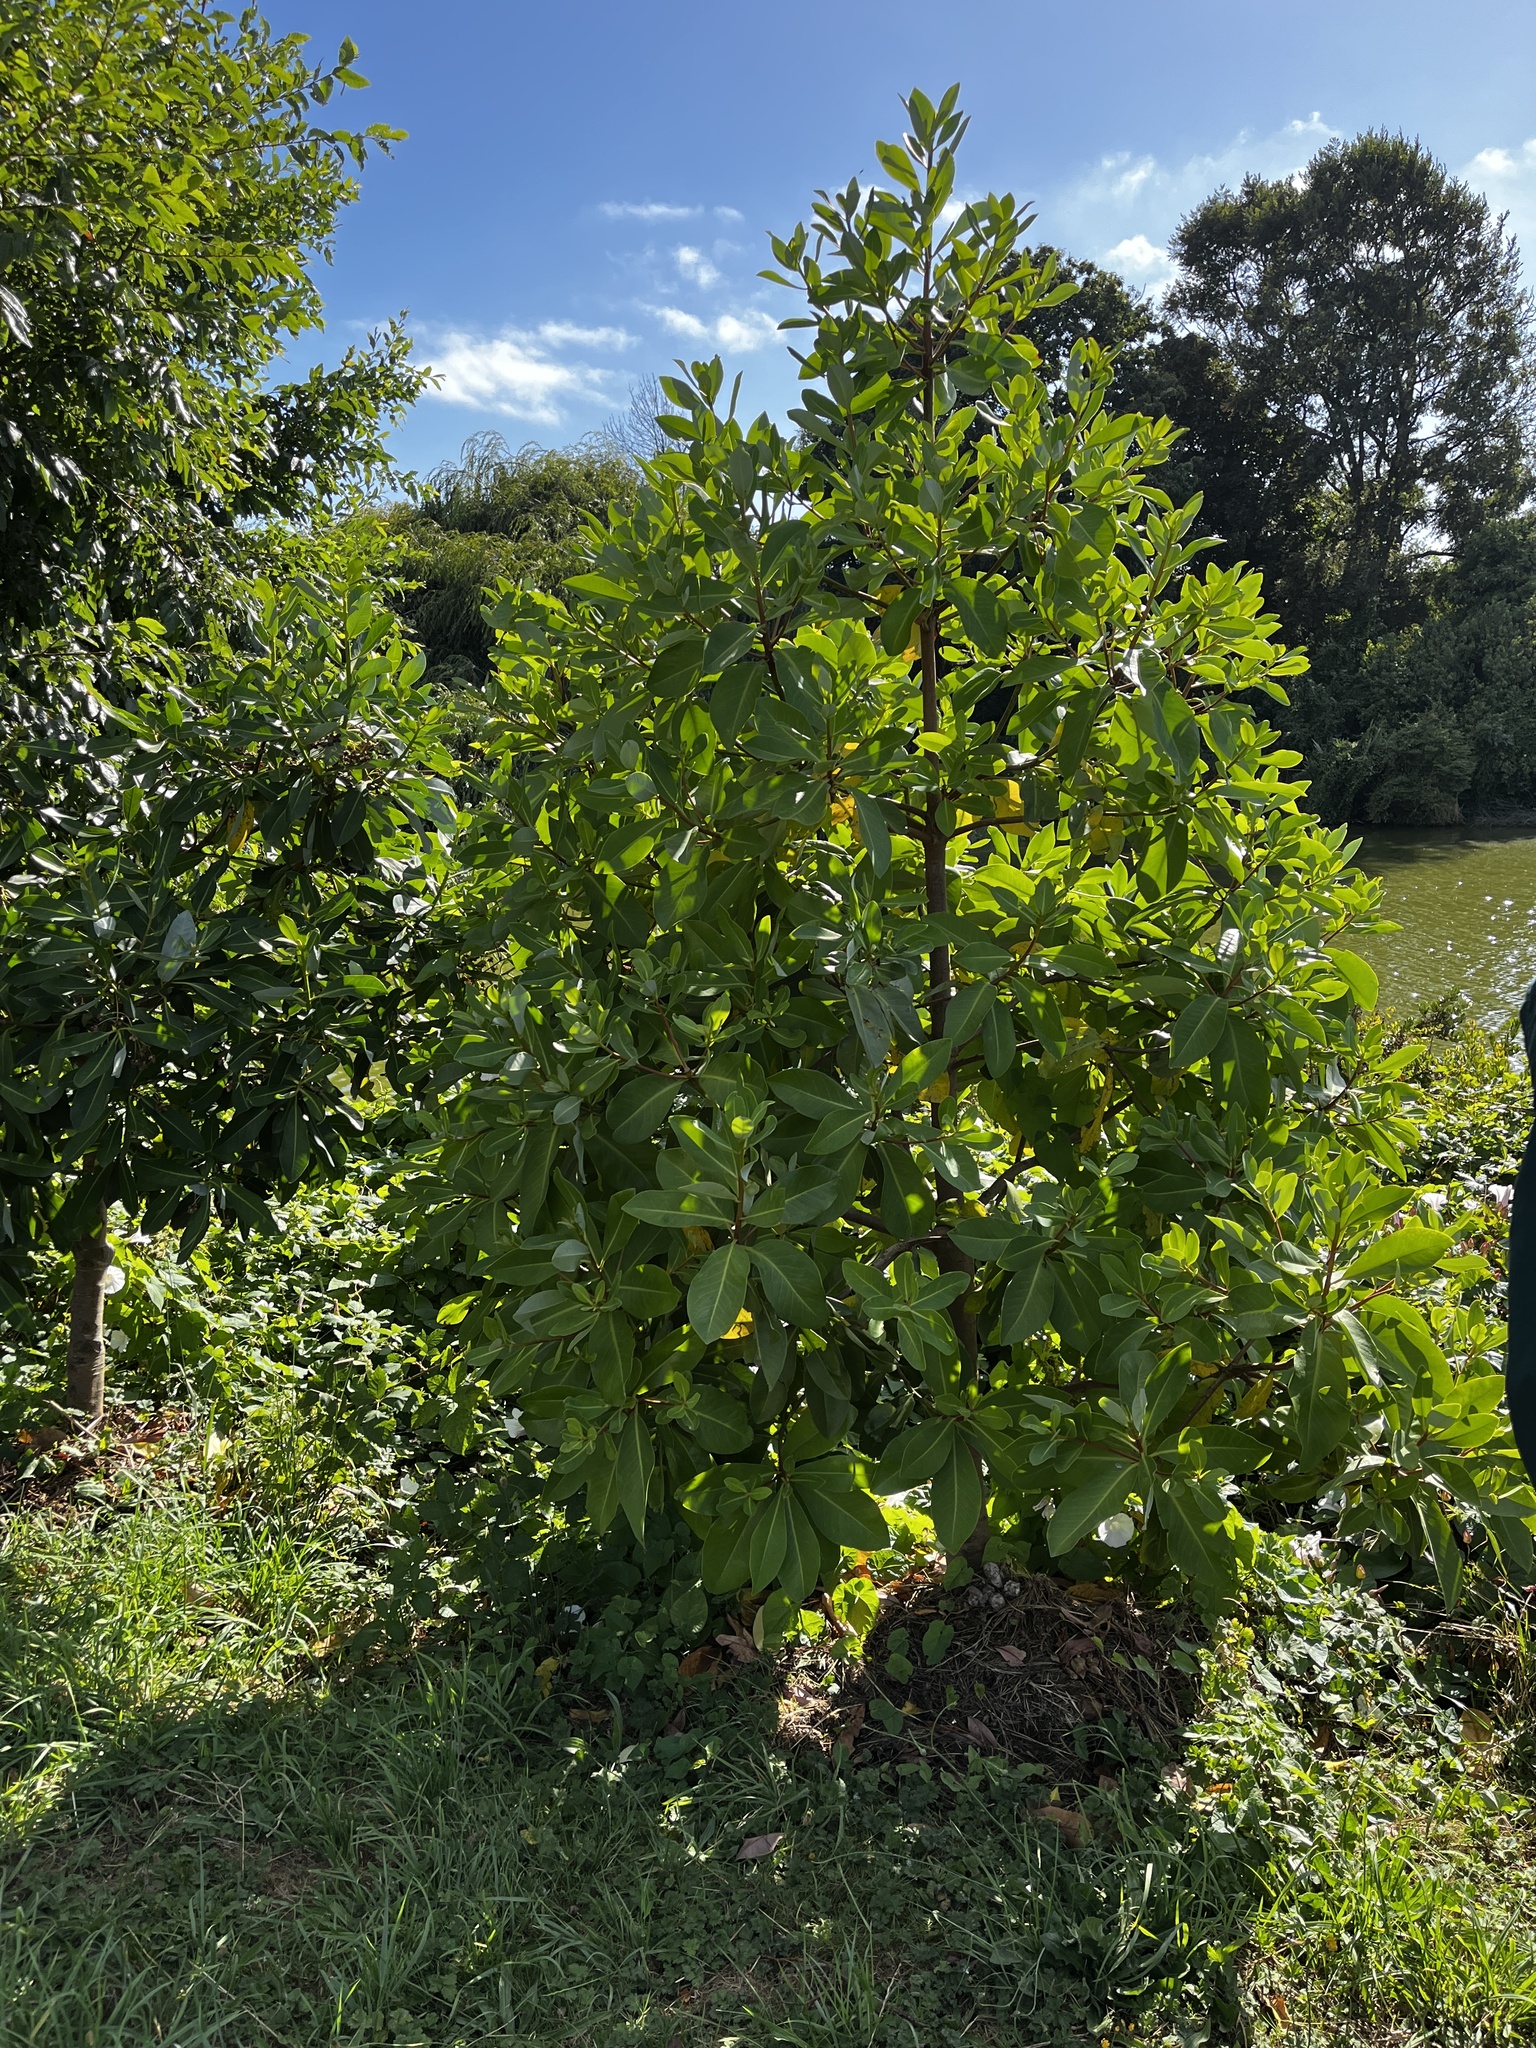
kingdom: Plantae
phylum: Tracheophyta
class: Magnoliopsida
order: Canellales
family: Winteraceae
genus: Drimys
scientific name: Drimys winteri
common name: Winter's-bark
